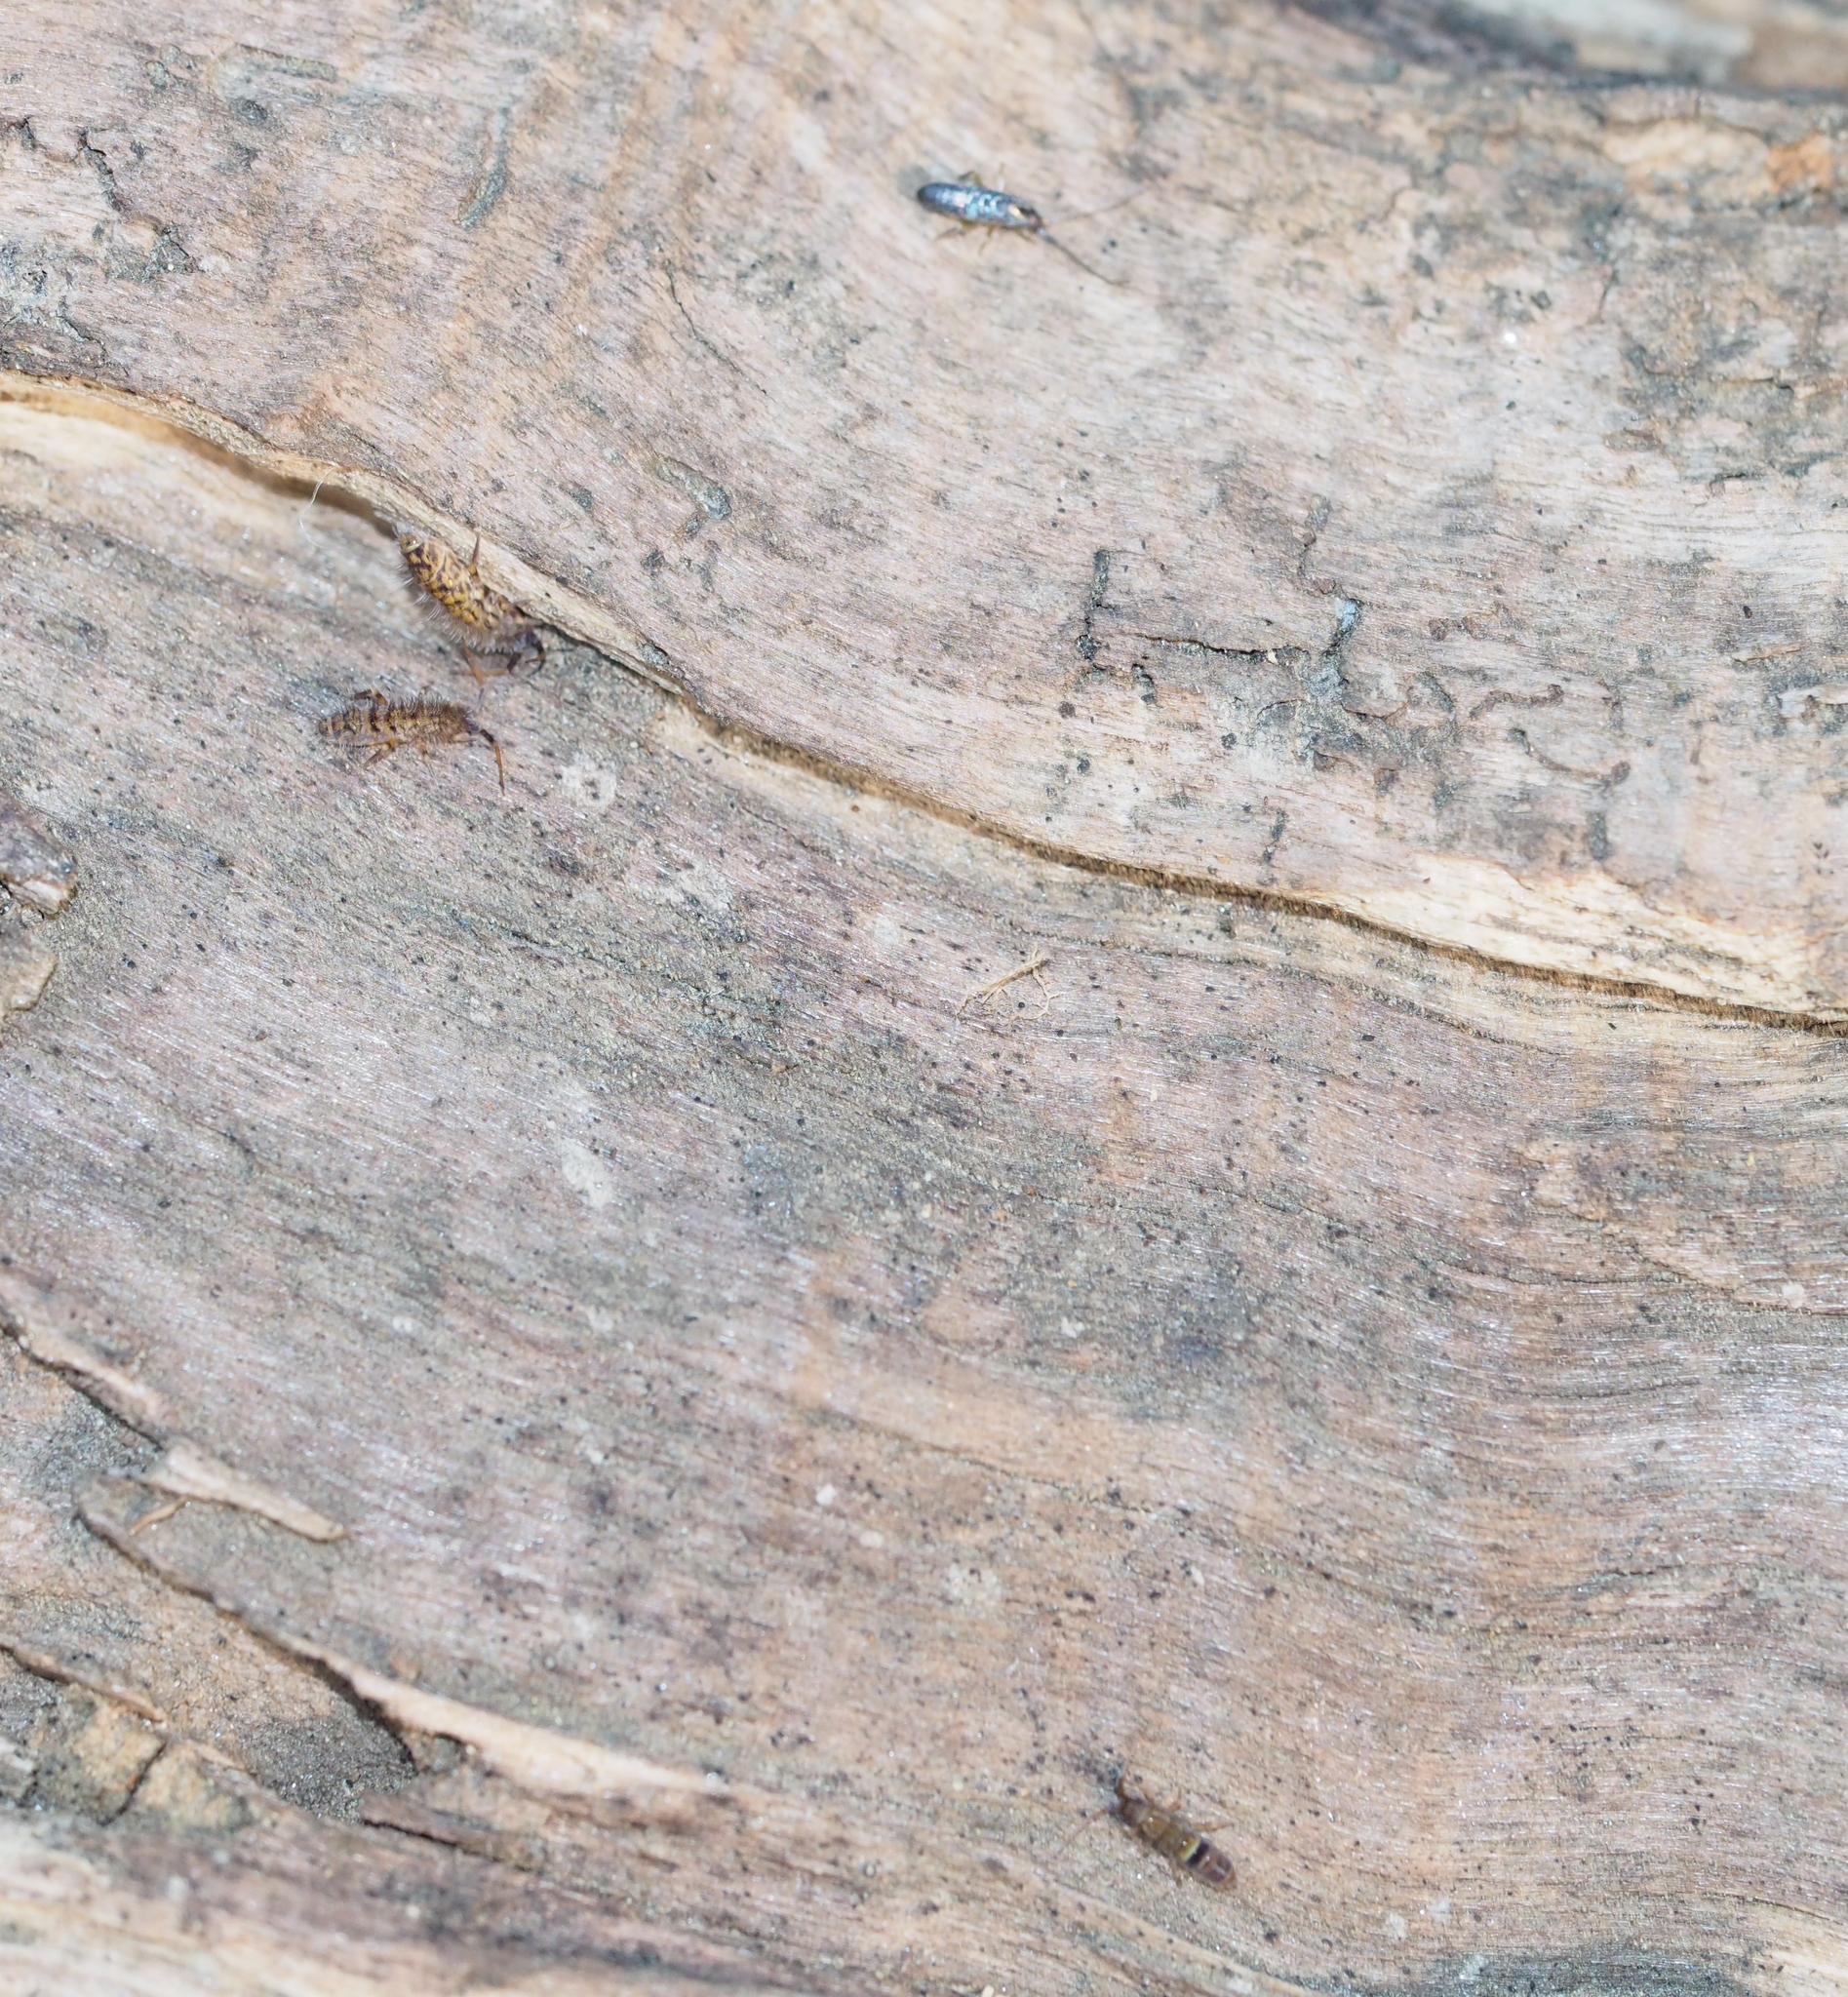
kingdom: Animalia
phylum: Arthropoda
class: Collembola
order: Entomobryomorpha
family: Orchesellidae
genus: Orchesella
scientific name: Orchesella villosa
